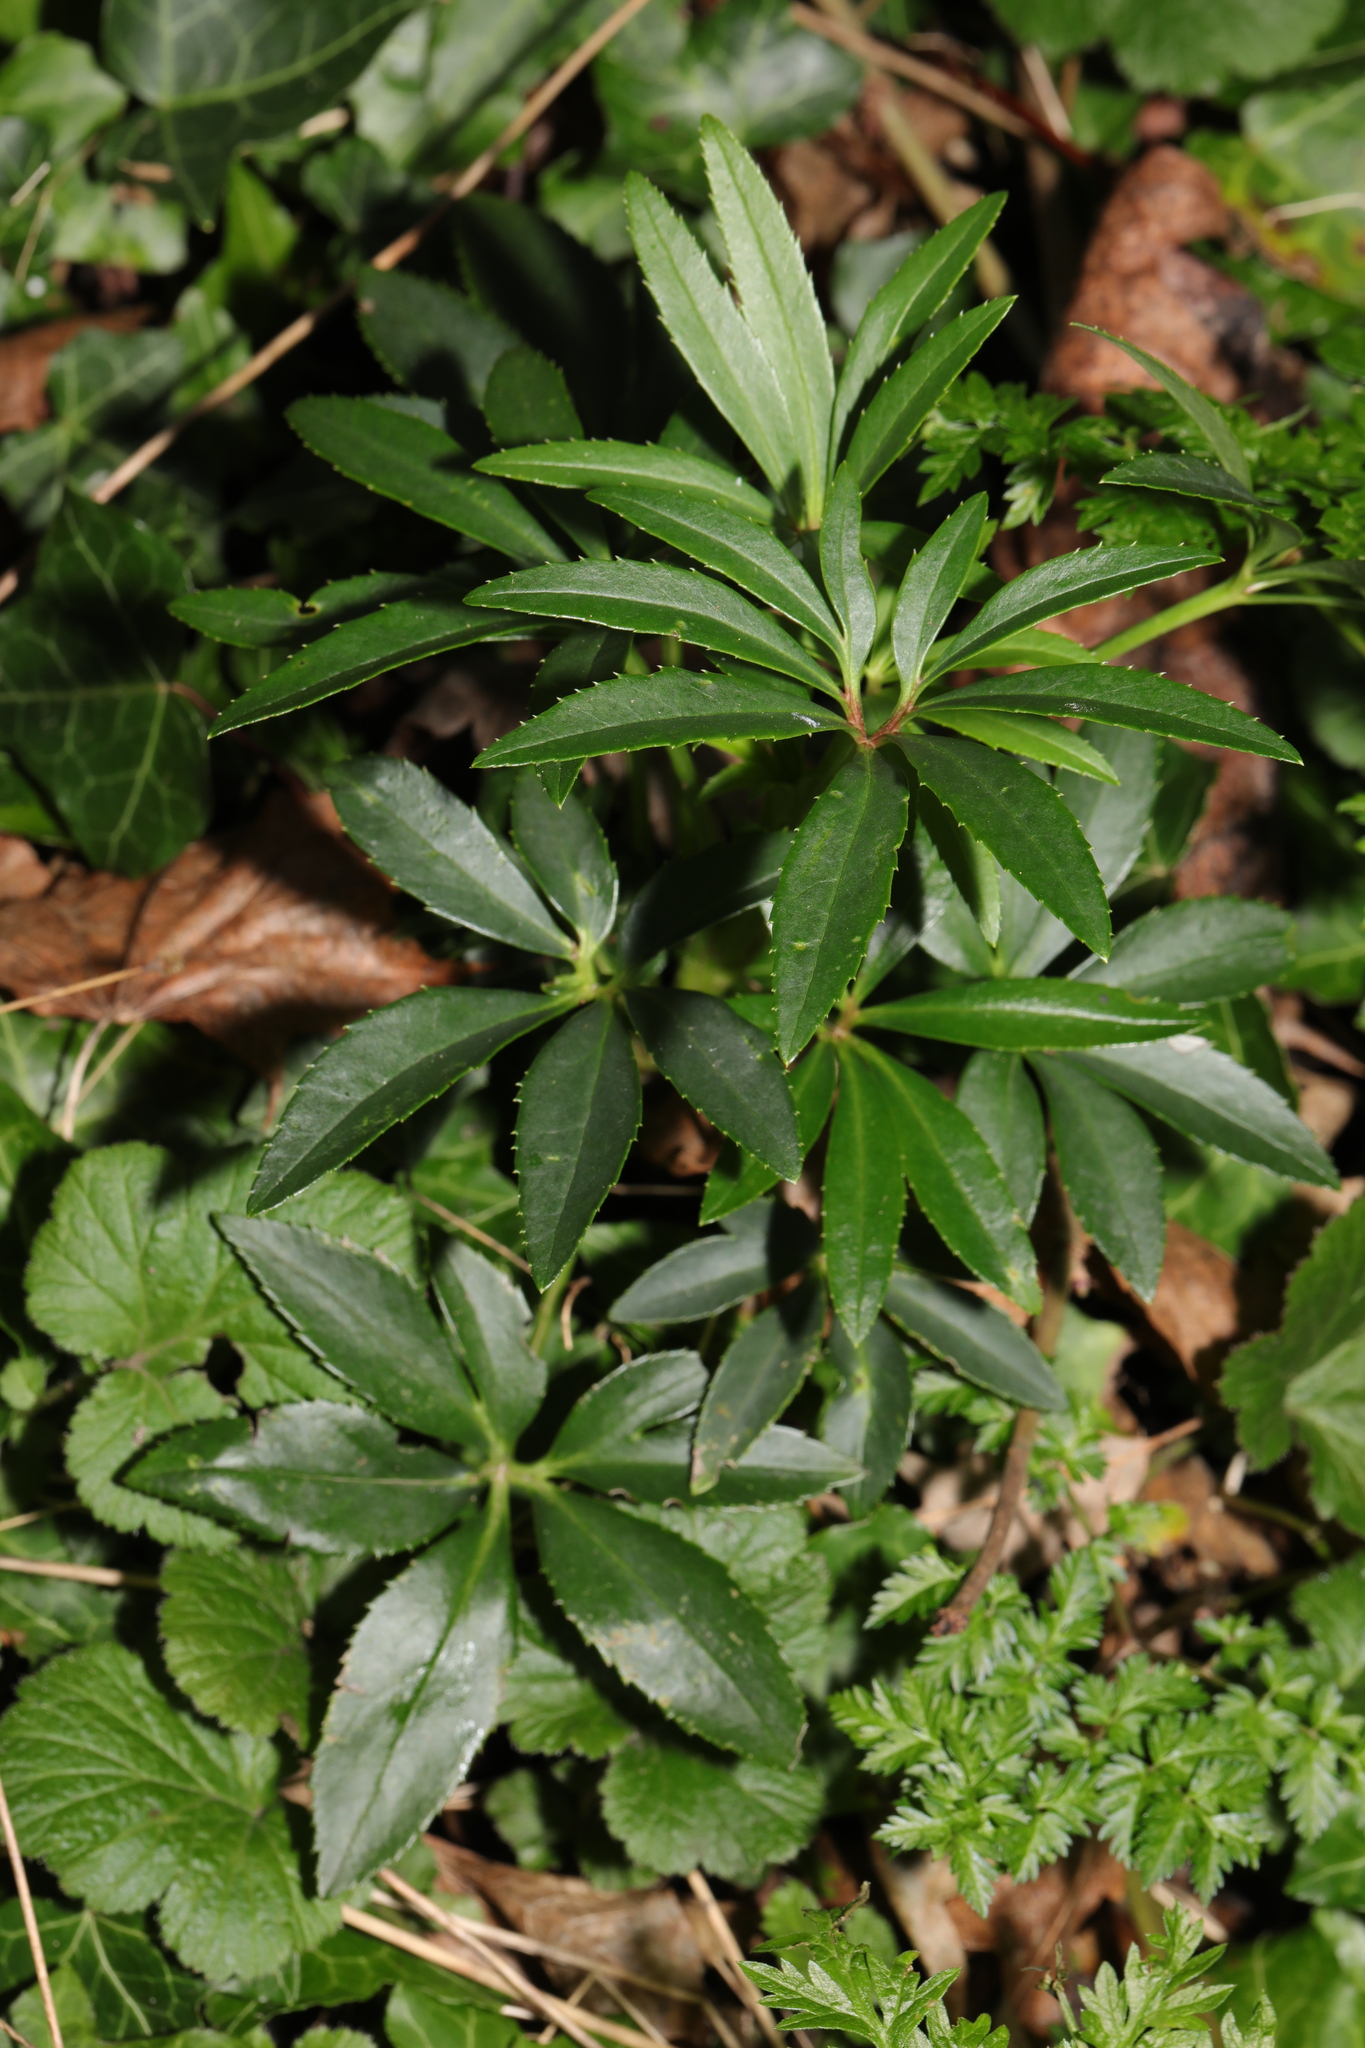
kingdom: Plantae
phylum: Tracheophyta
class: Magnoliopsida
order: Ranunculales
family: Ranunculaceae
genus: Helleborus
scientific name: Helleborus foetidus
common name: Stinking hellebore
